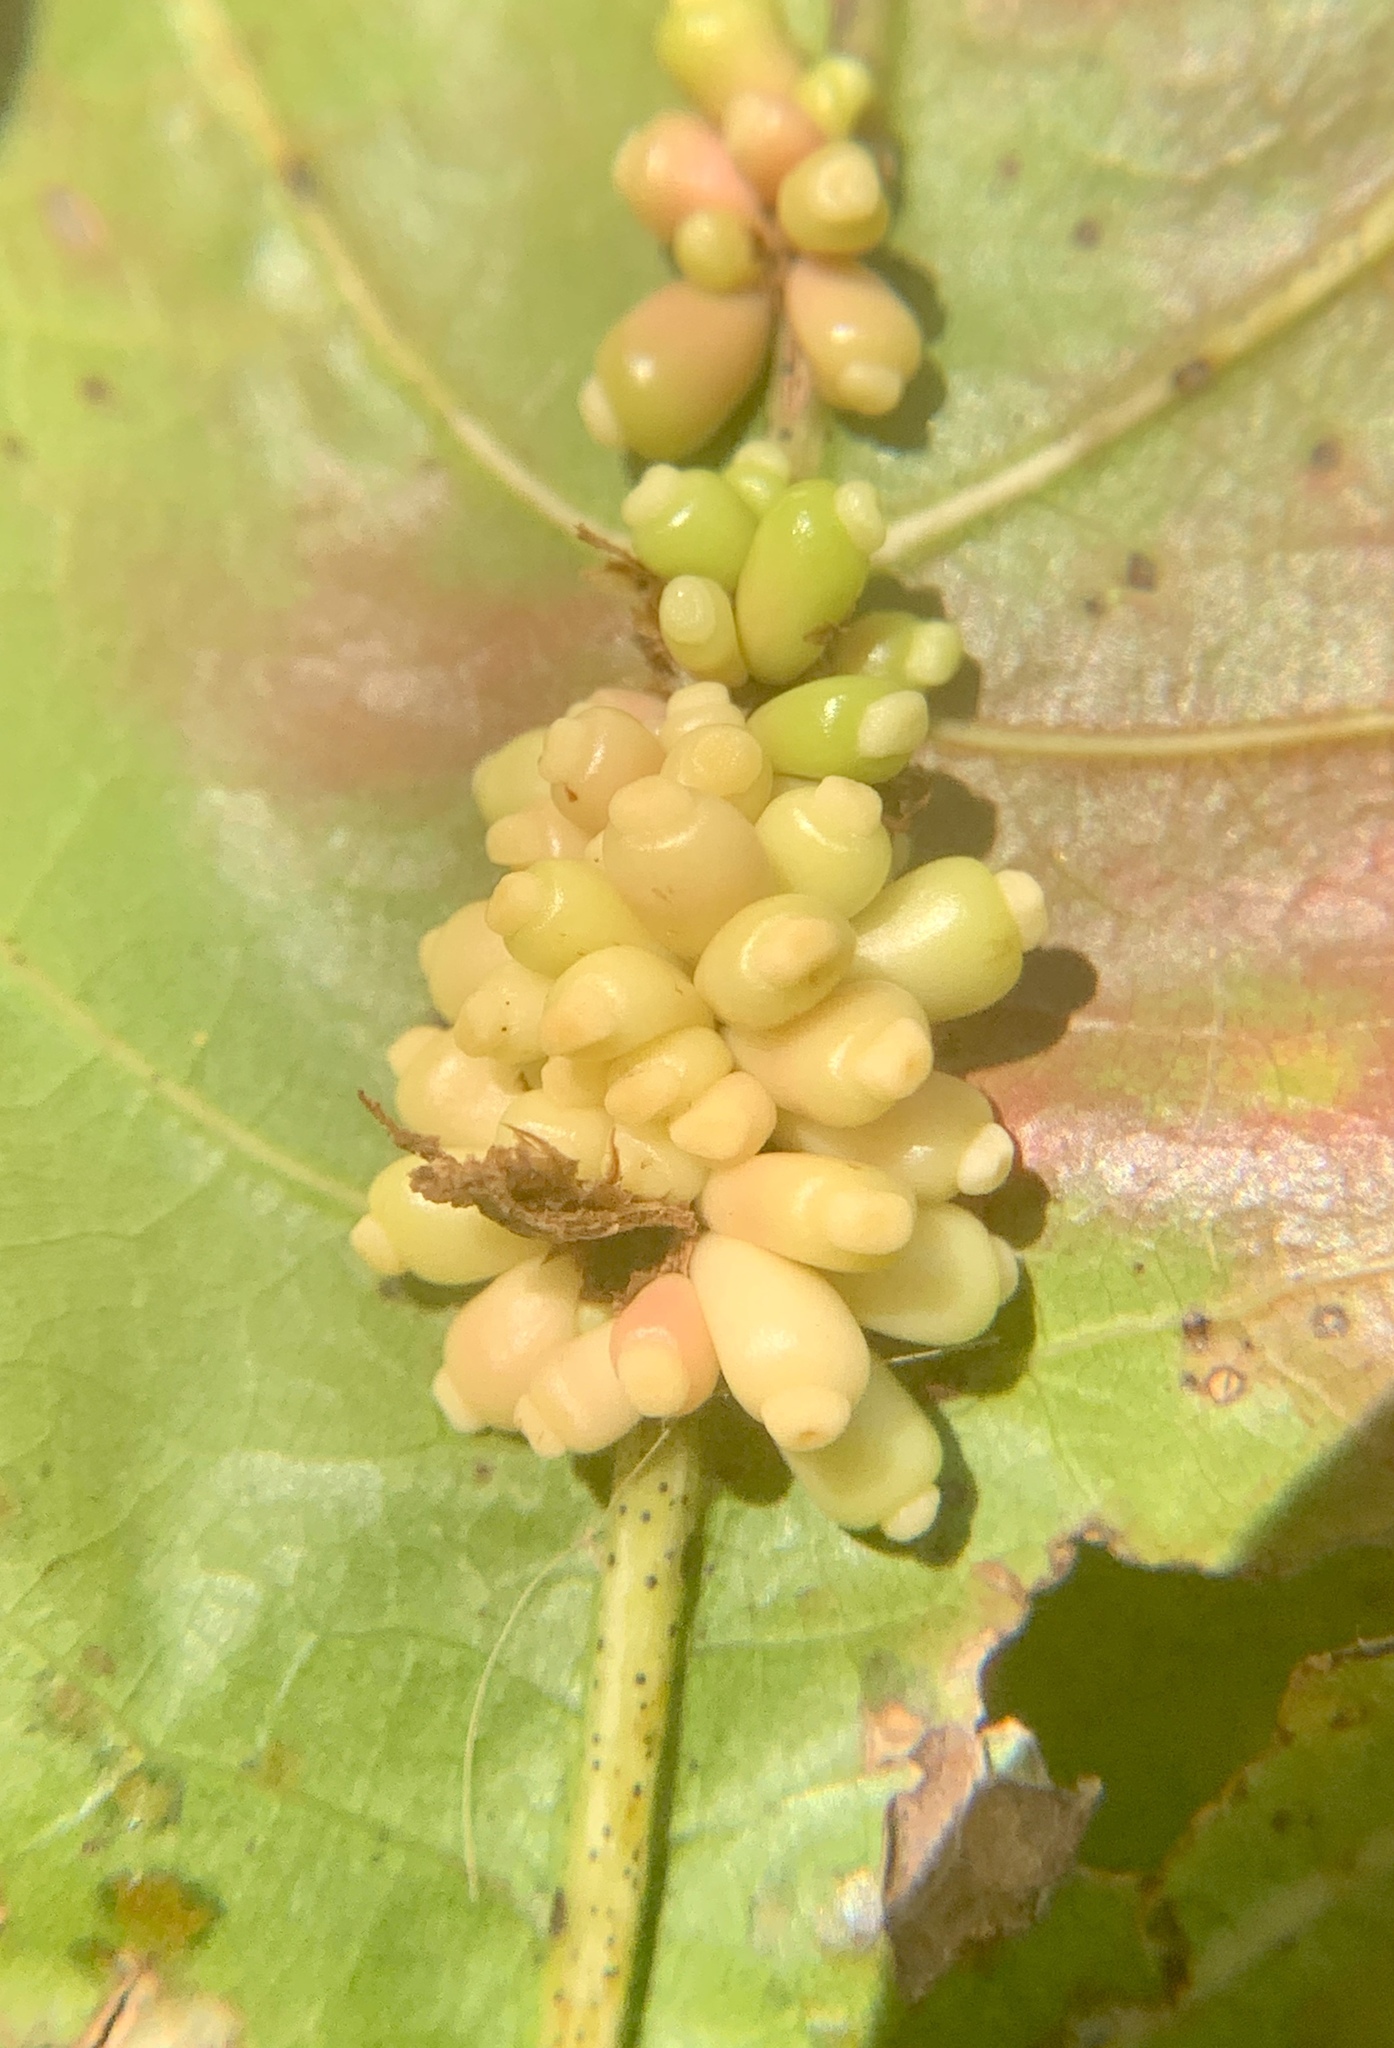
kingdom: Animalia
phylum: Arthropoda
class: Insecta
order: Hymenoptera
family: Cynipidae
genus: Kokkocynips
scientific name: Kokkocynips decidua
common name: Oak wheat gall
